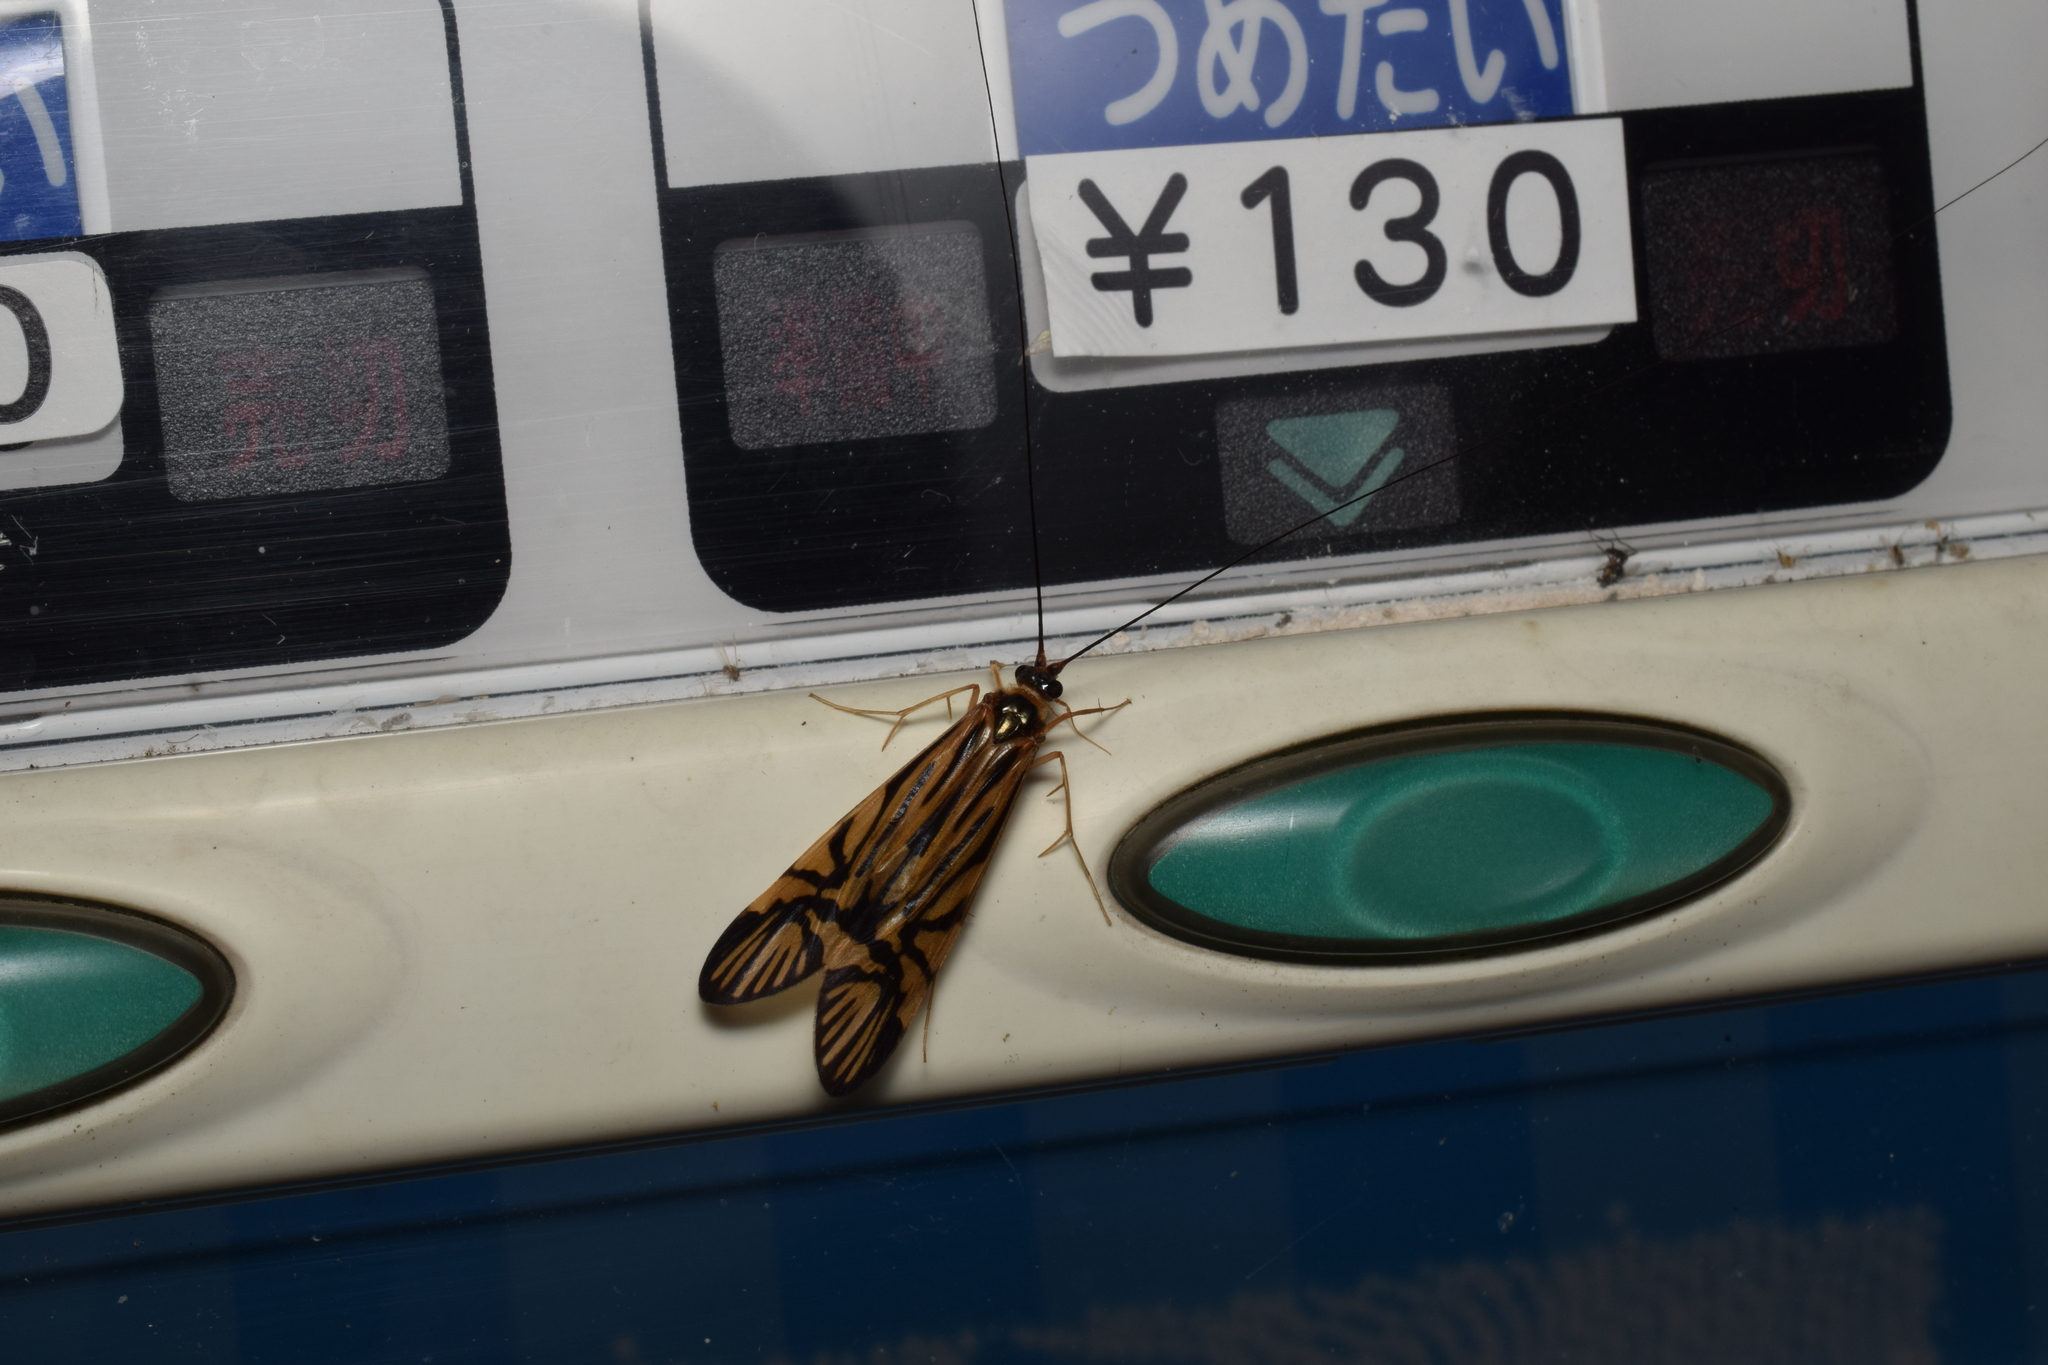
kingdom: Animalia
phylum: Arthropoda
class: Insecta
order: Trichoptera
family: Hydropsychidae
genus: Macrostemum
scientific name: Macrostemum radiatum
